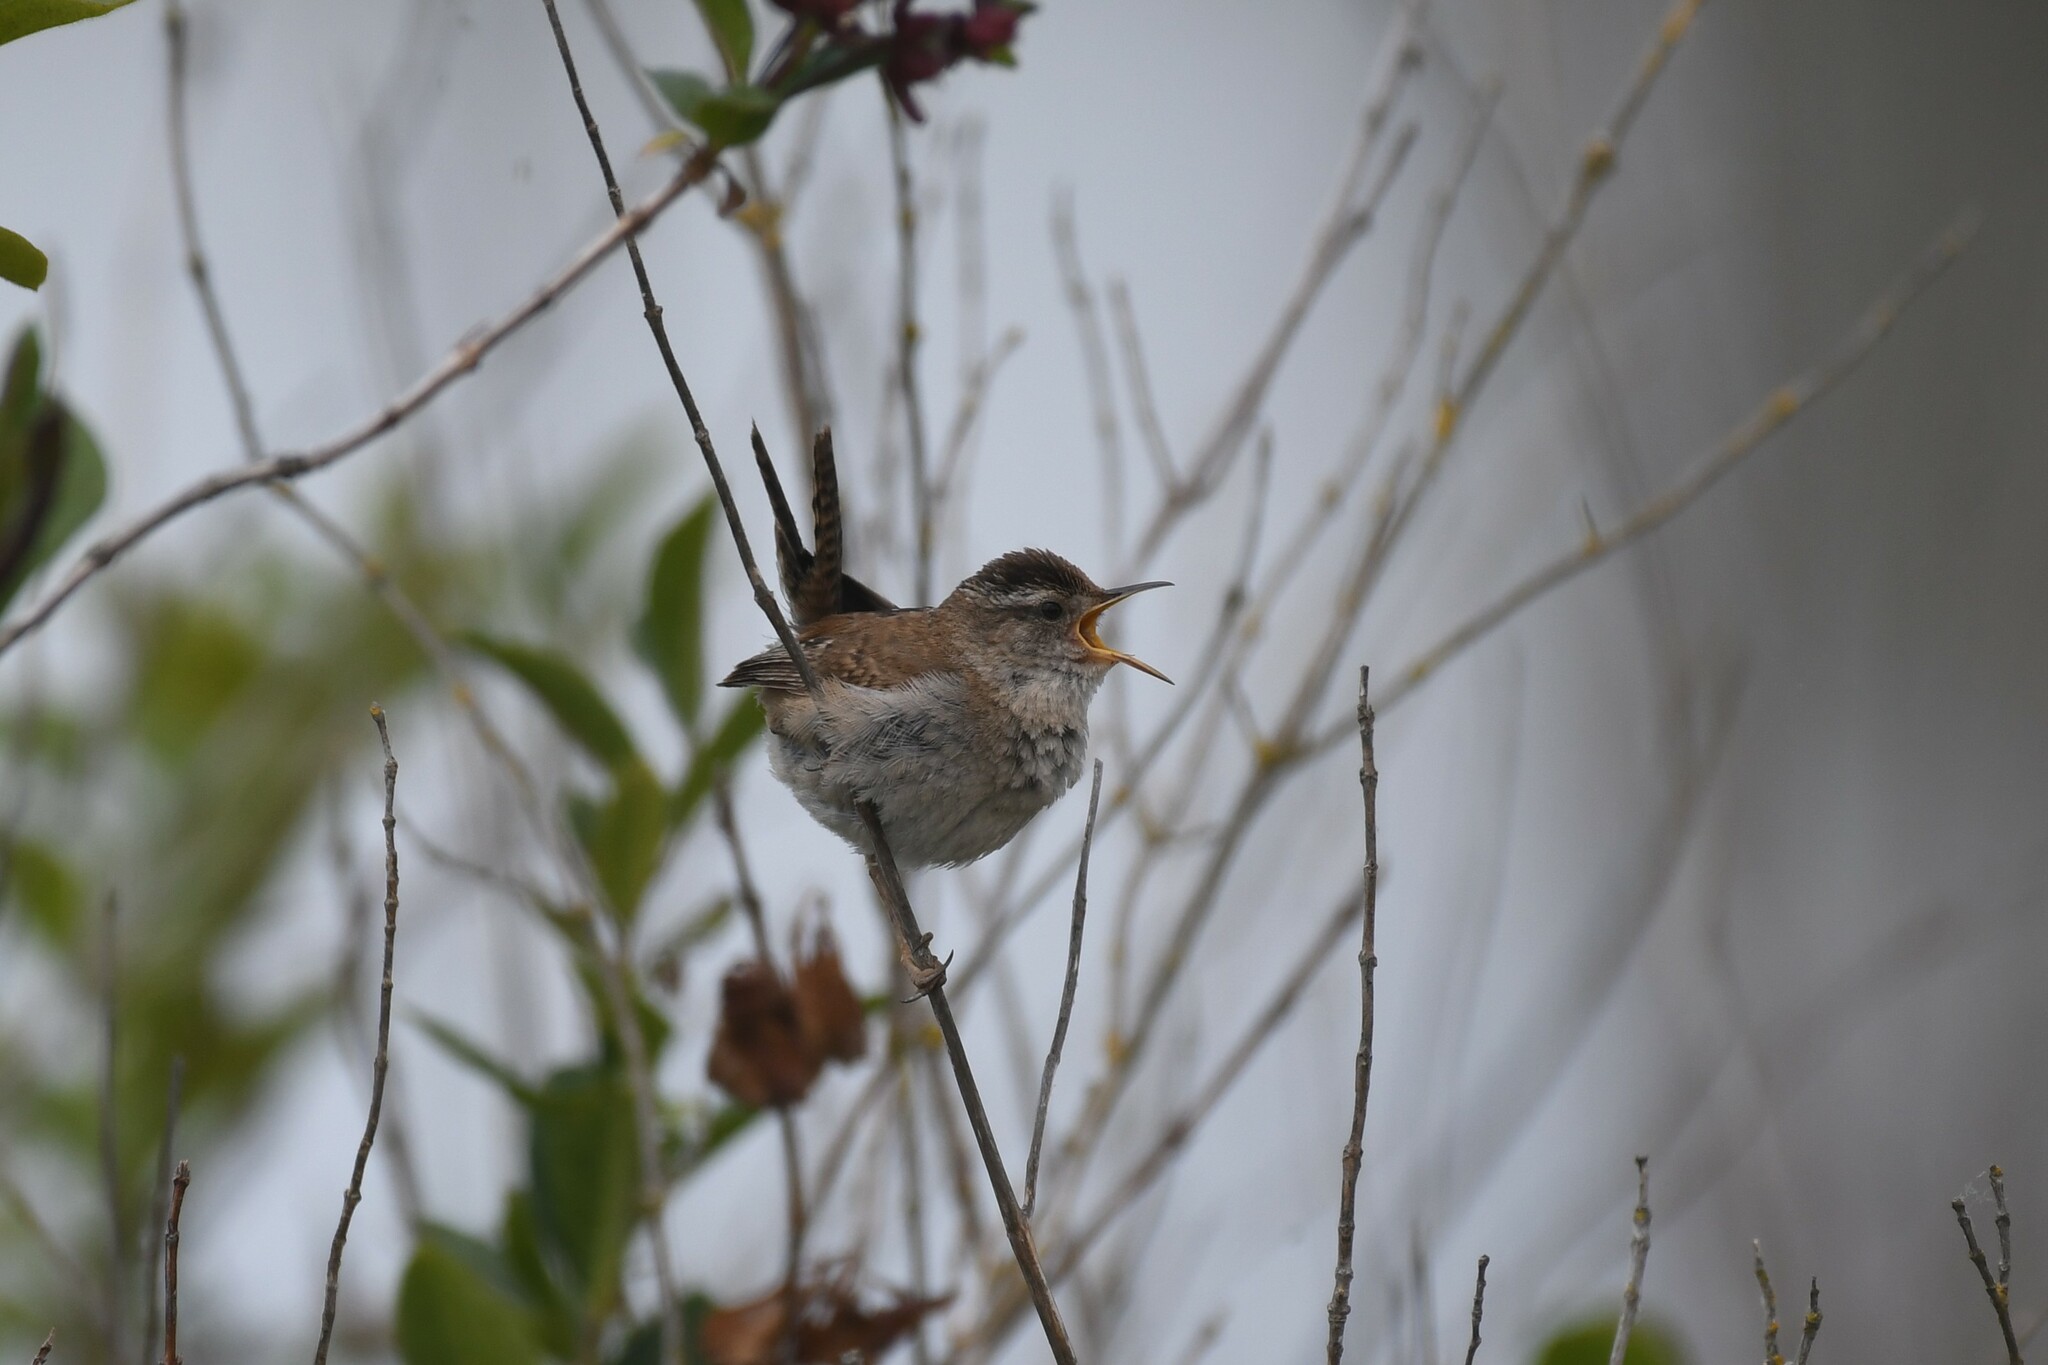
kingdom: Animalia
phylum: Chordata
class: Aves
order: Passeriformes
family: Troglodytidae
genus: Cistothorus
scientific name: Cistothorus palustris
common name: Marsh wren
